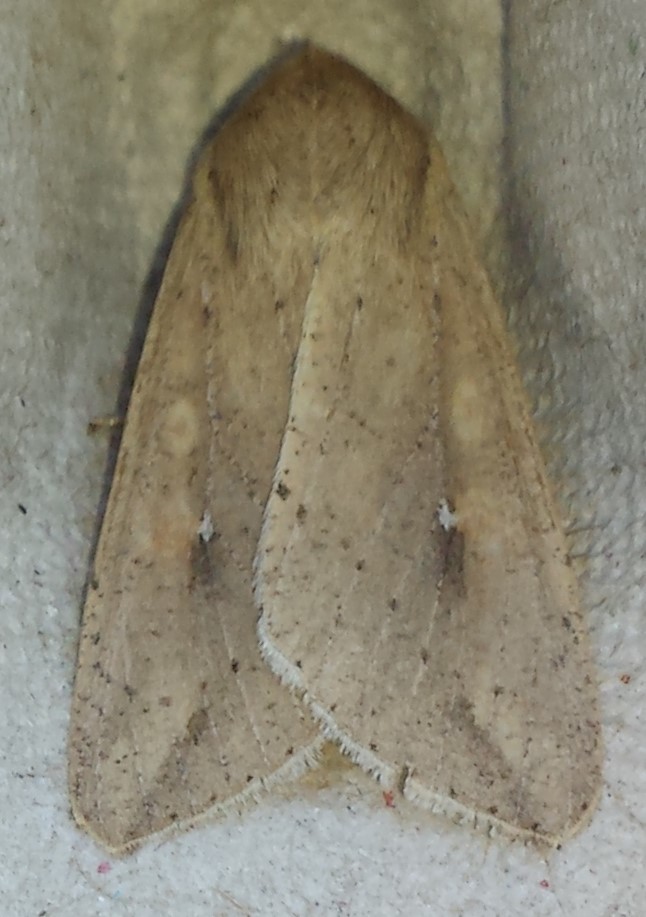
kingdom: Animalia
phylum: Arthropoda
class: Insecta
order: Lepidoptera
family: Noctuidae
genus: Mythimna
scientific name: Mythimna unipuncta
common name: White-speck
